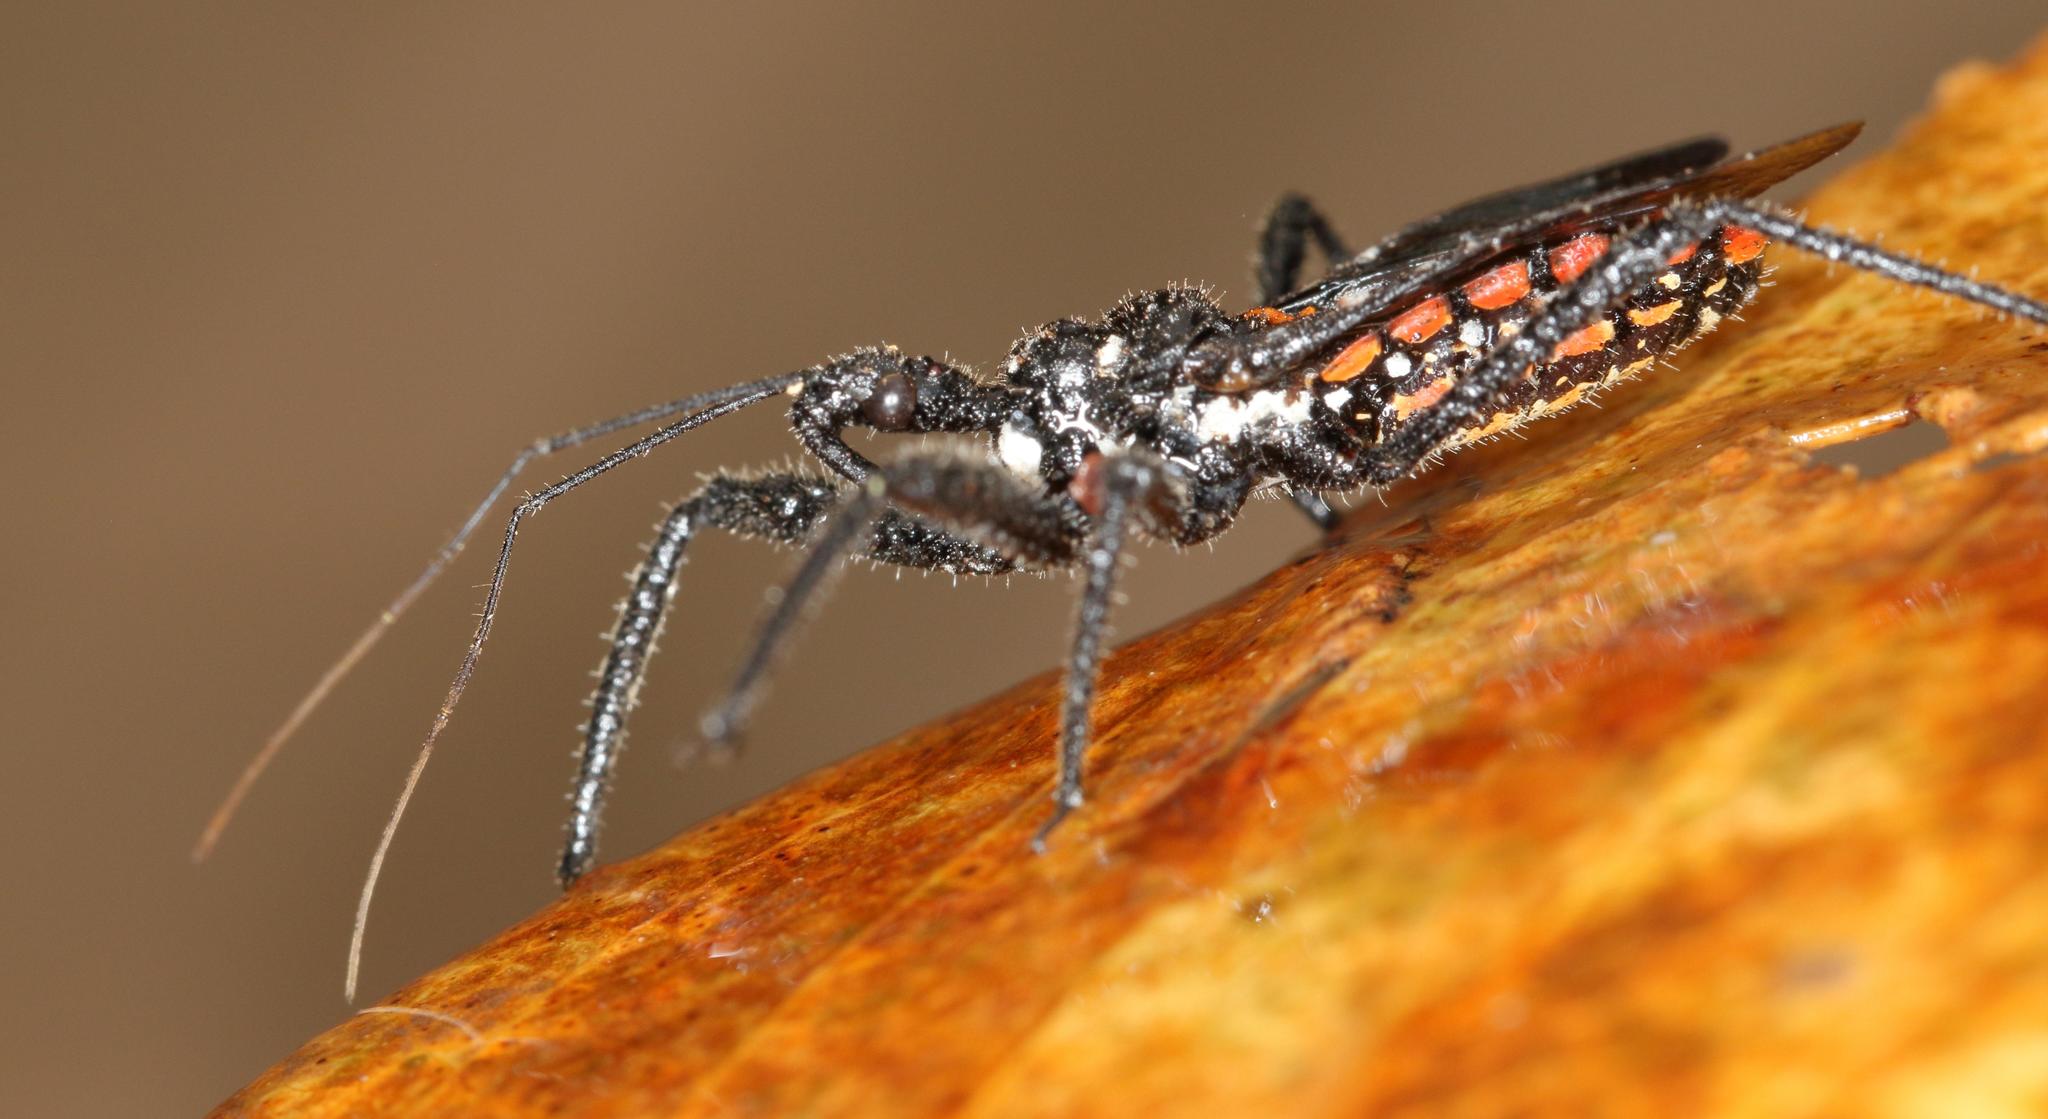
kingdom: Animalia
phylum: Arthropoda
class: Insecta
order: Hemiptera
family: Reduviidae
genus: Rhynocoris
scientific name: Rhynocoris albopunctatus
